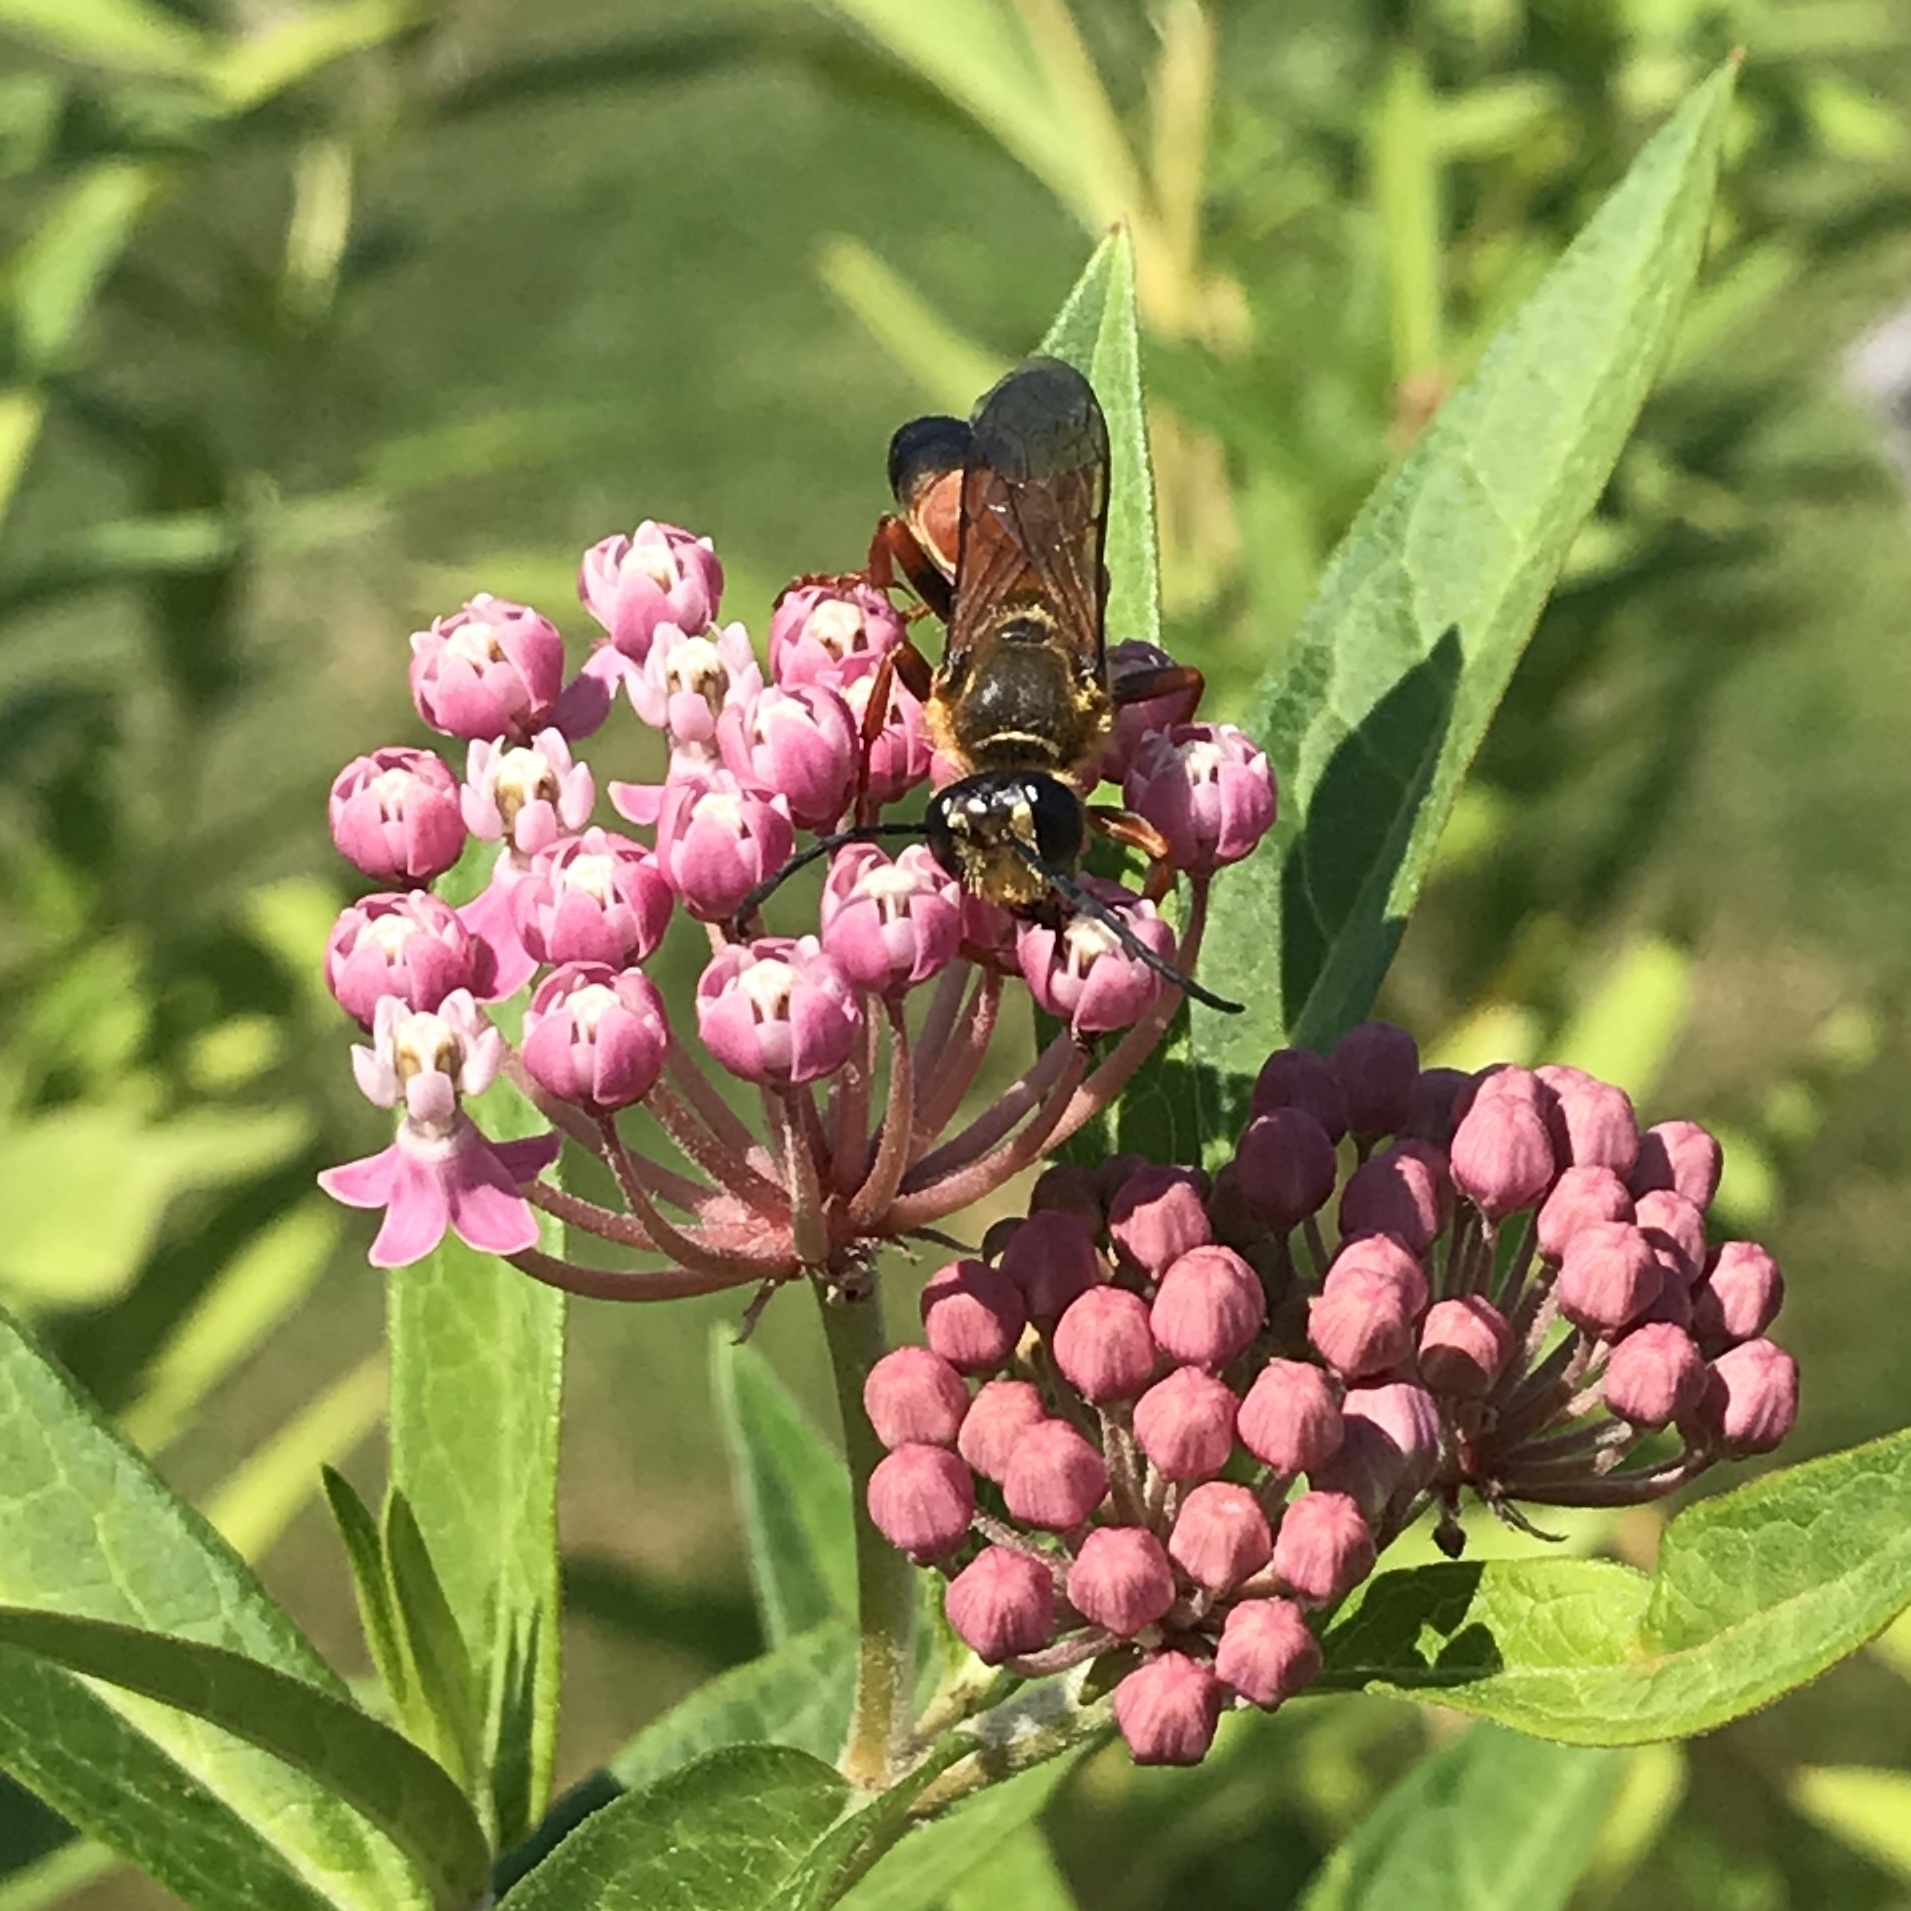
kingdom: Animalia
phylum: Arthropoda
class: Insecta
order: Hymenoptera
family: Sphecidae
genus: Sphex
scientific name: Sphex ichneumoneus
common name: Great golden digger wasp
